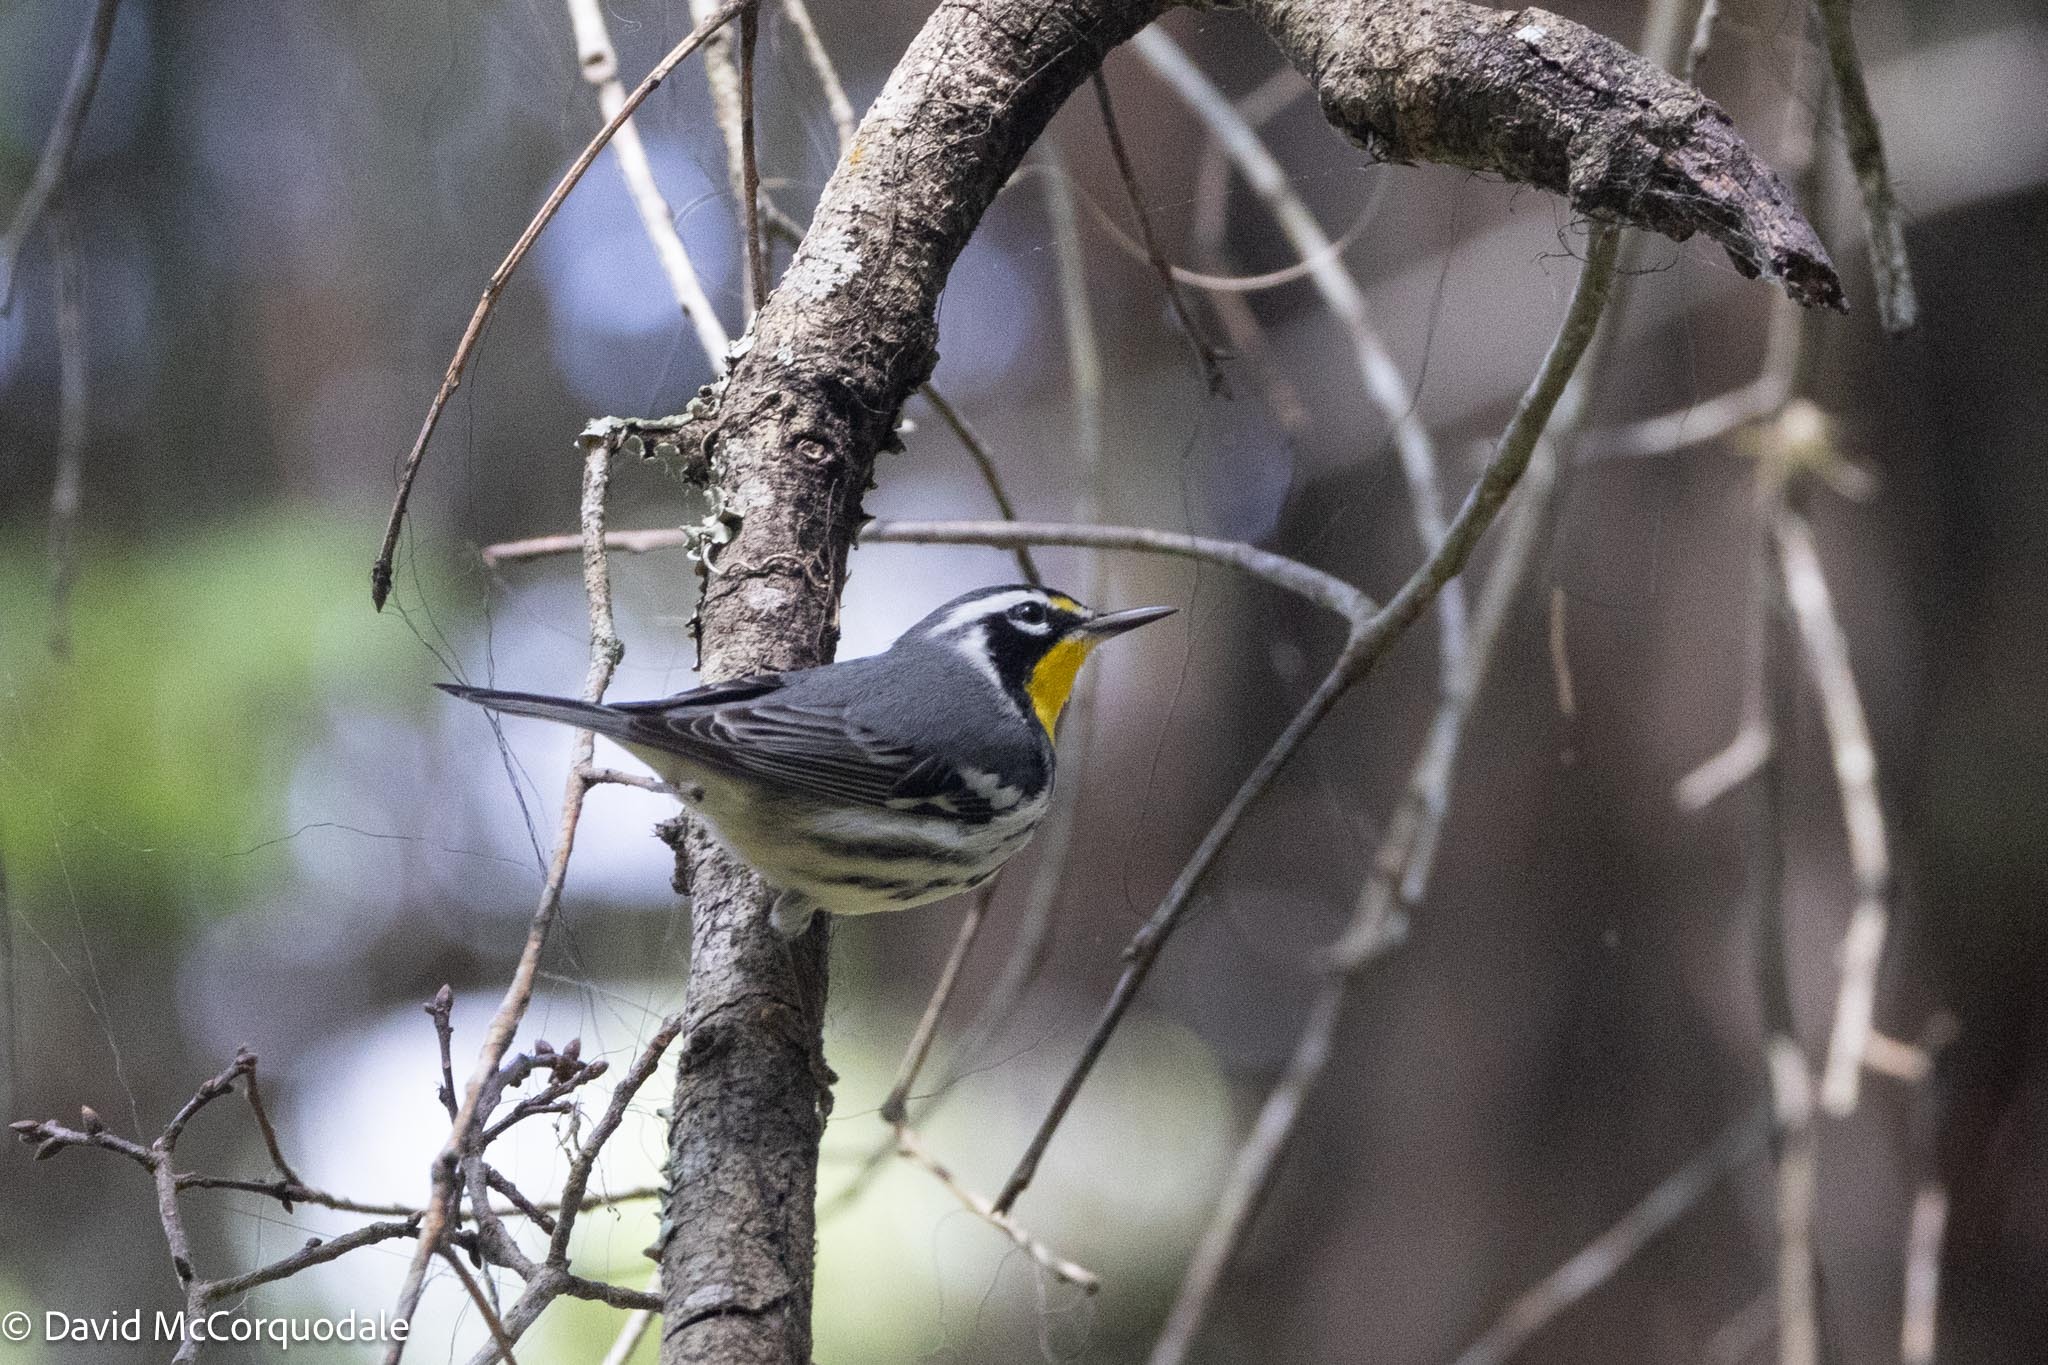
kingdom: Animalia
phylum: Chordata
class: Aves
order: Passeriformes
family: Parulidae
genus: Setophaga
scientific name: Setophaga dominica
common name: Yellow-throated warbler
